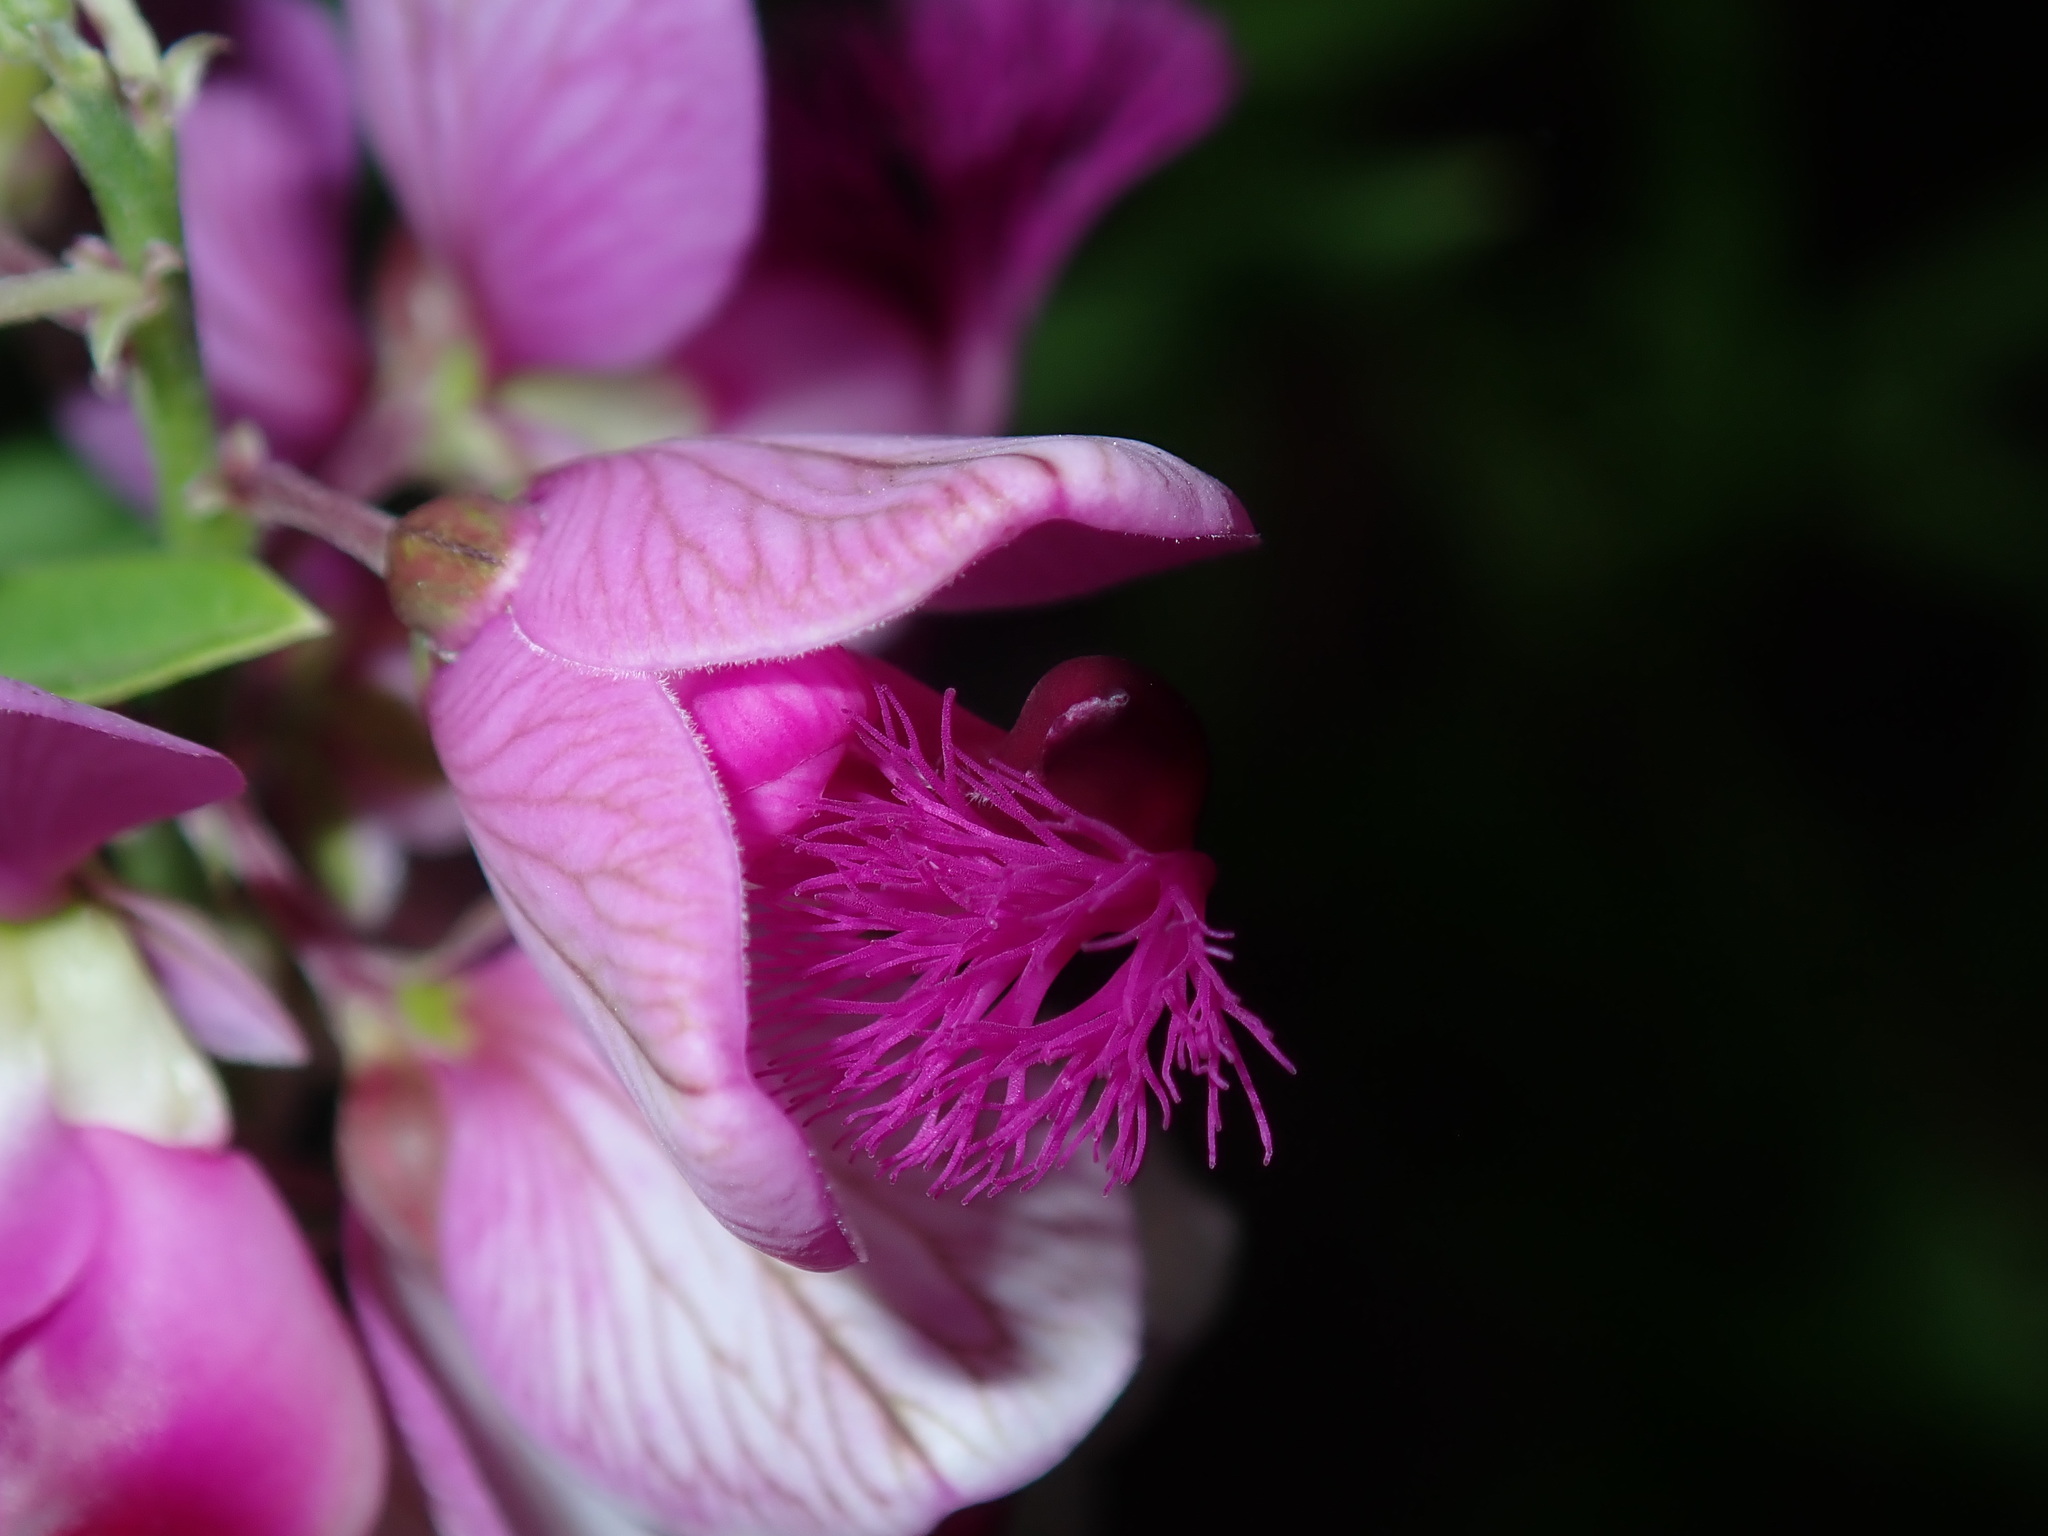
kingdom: Plantae
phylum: Tracheophyta
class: Magnoliopsida
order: Fabales
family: Polygalaceae
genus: Polygala
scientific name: Polygala virgata
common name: Milkwort
